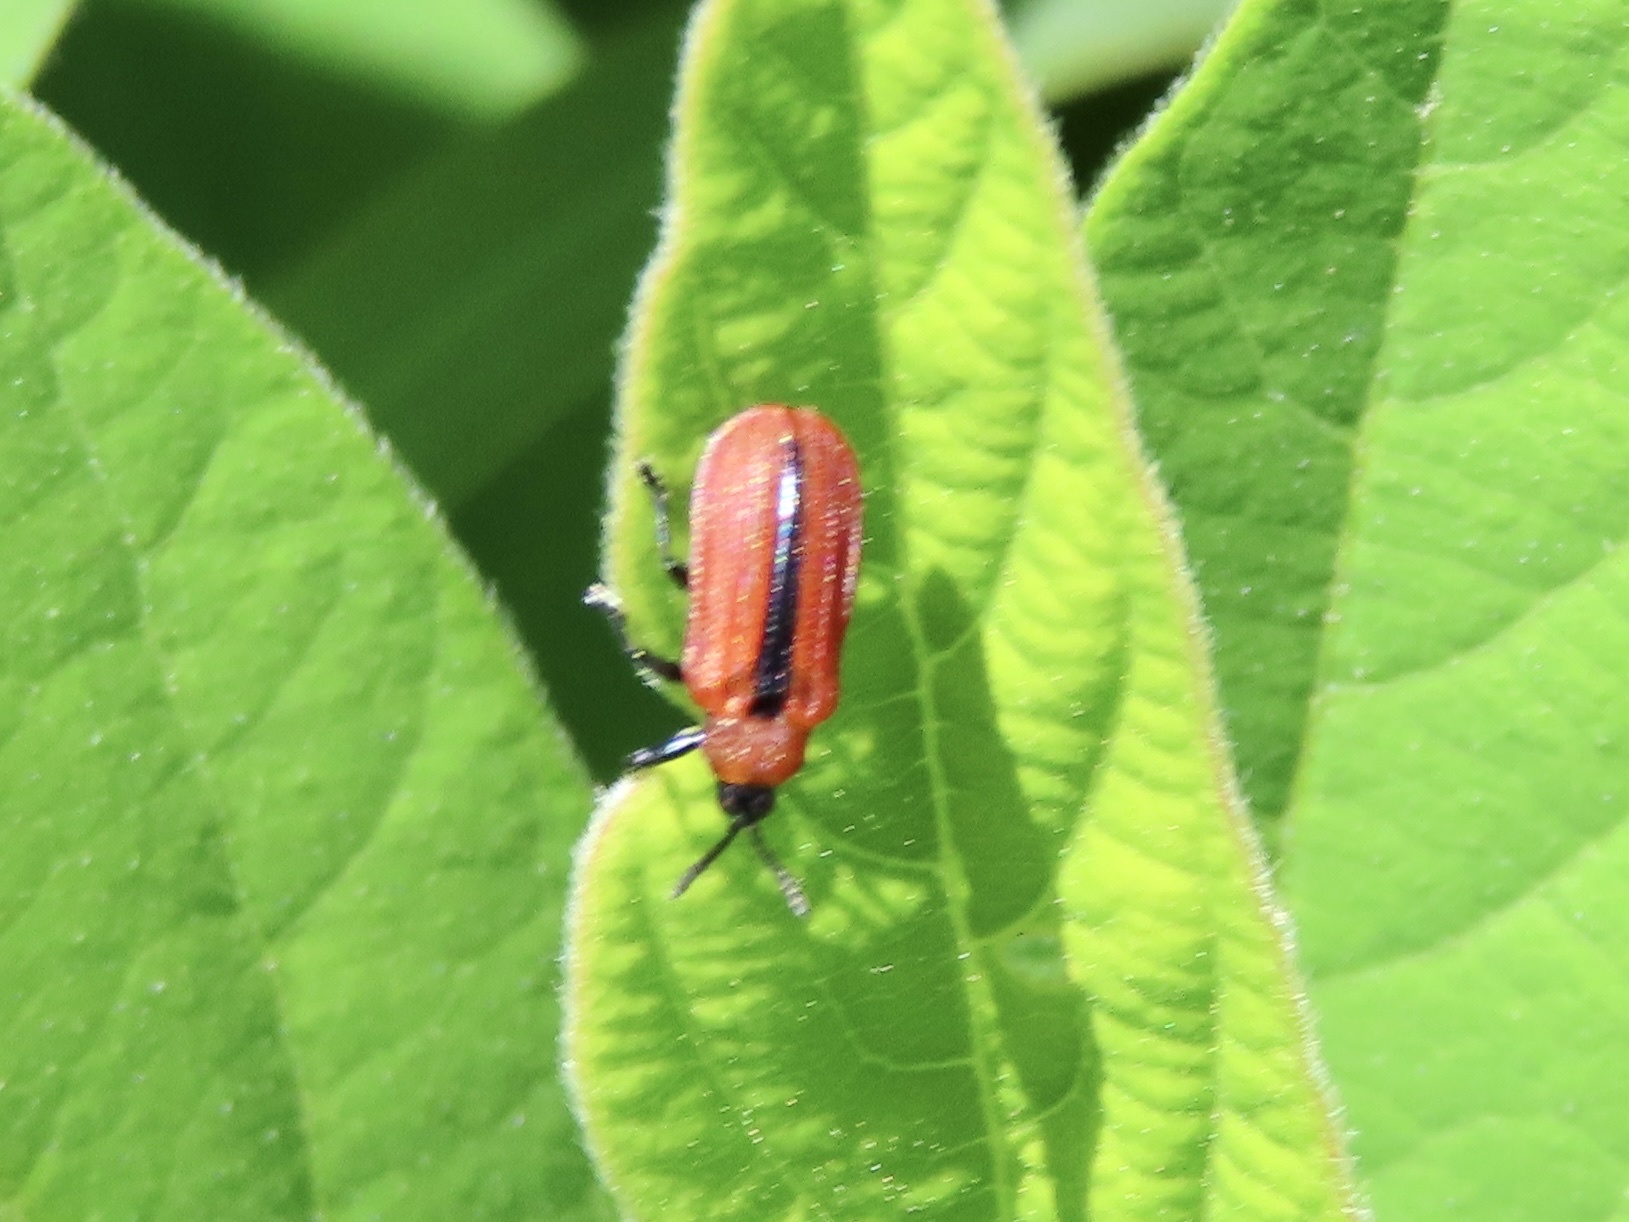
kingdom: Animalia
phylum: Arthropoda
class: Insecta
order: Coleoptera
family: Chrysomelidae
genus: Odontota
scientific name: Odontota horni
